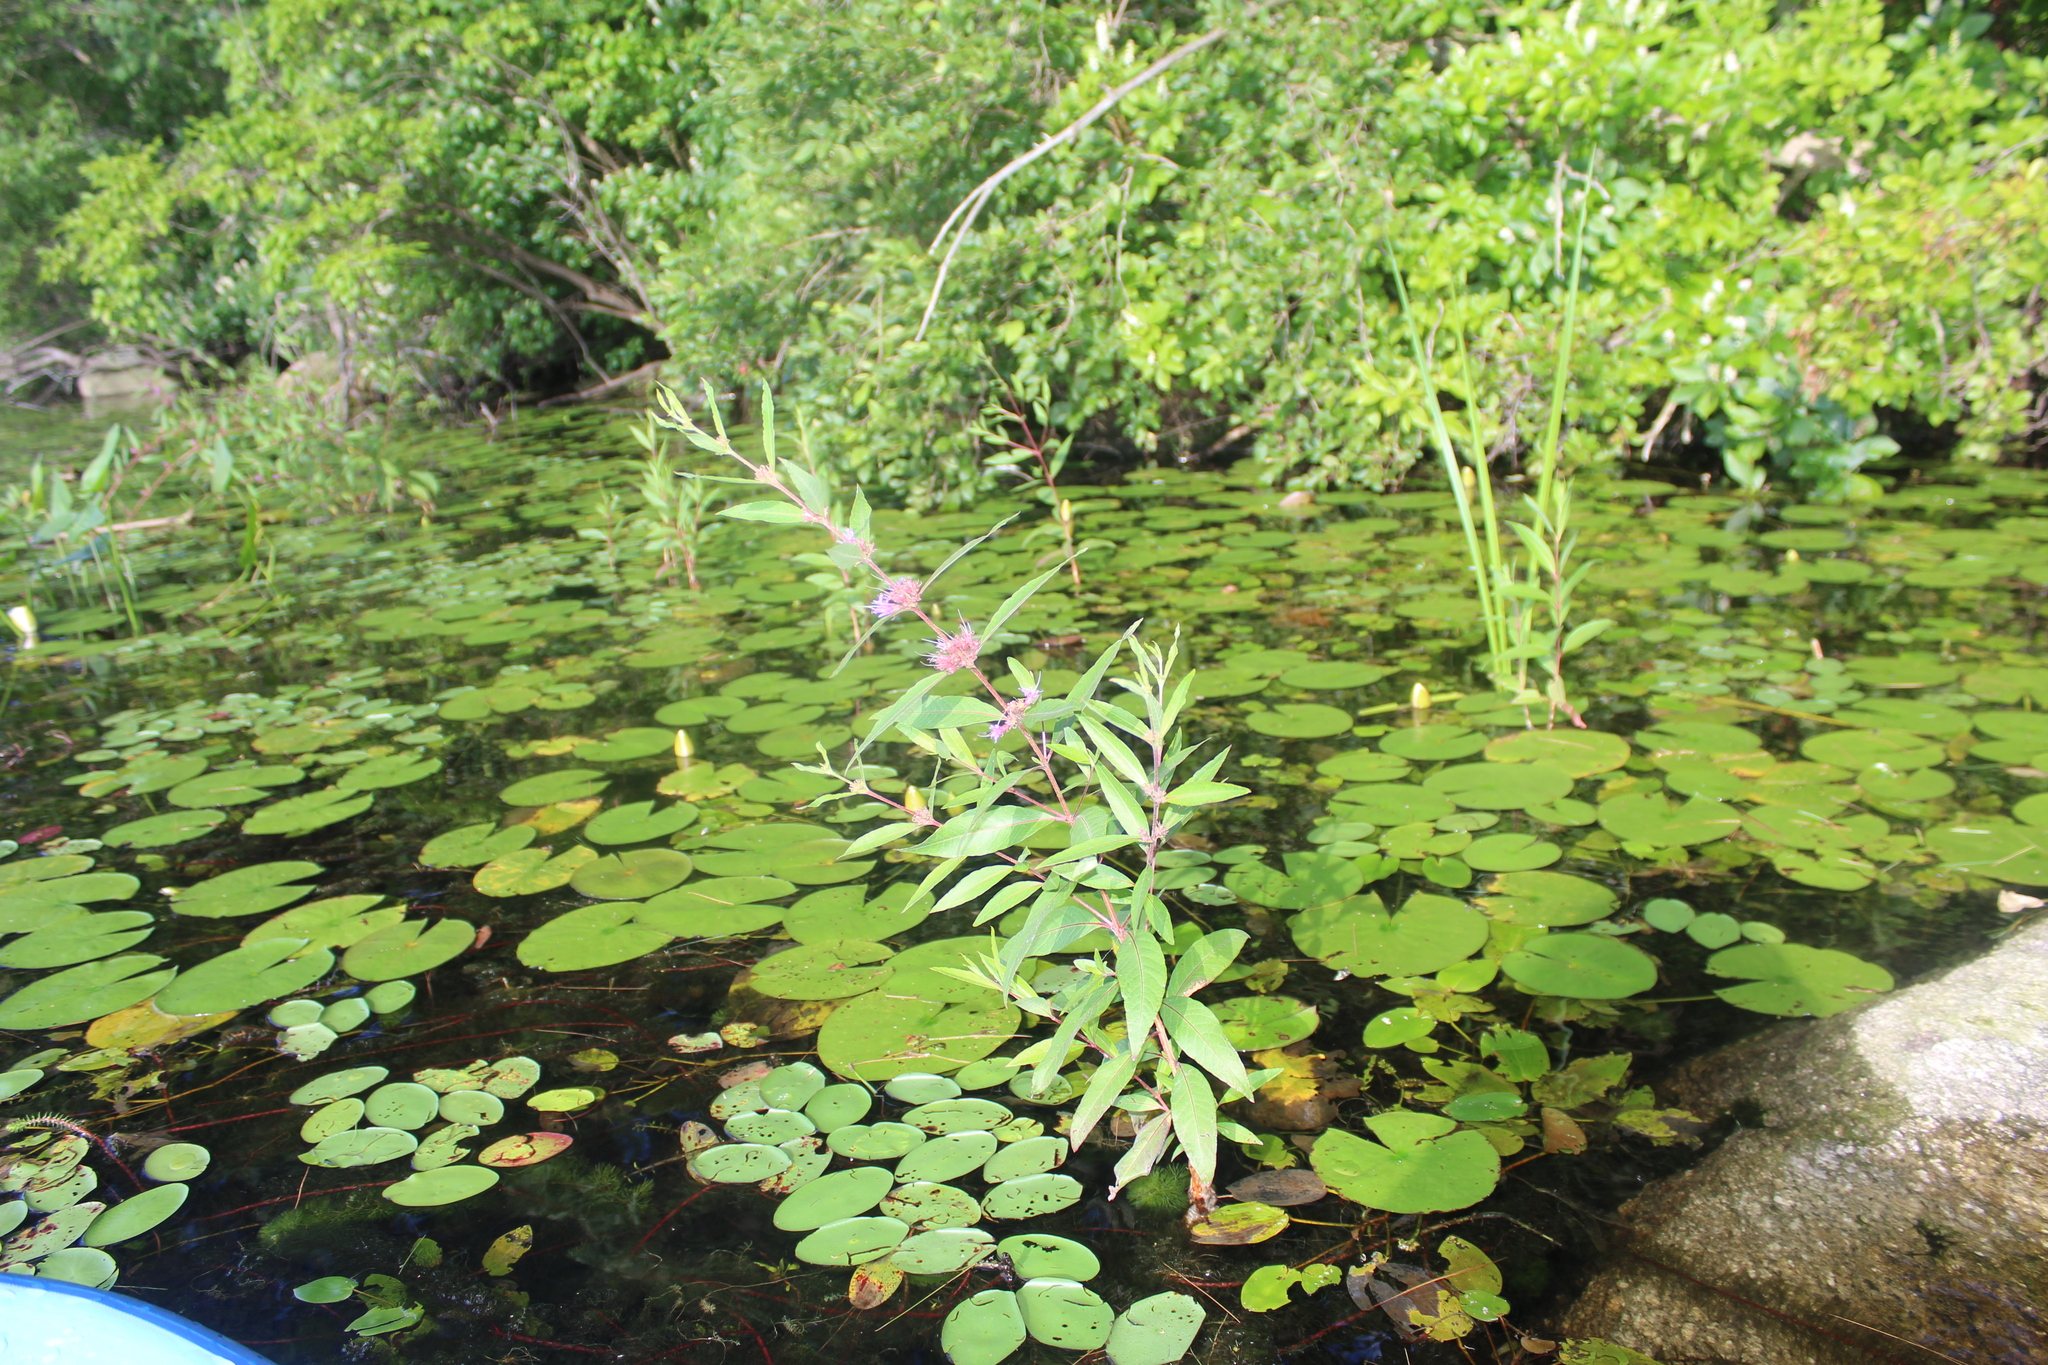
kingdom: Plantae
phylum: Tracheophyta
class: Magnoliopsida
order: Myrtales
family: Lythraceae
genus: Decodon
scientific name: Decodon verticillatus
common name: Hairy swamp loosestrife
